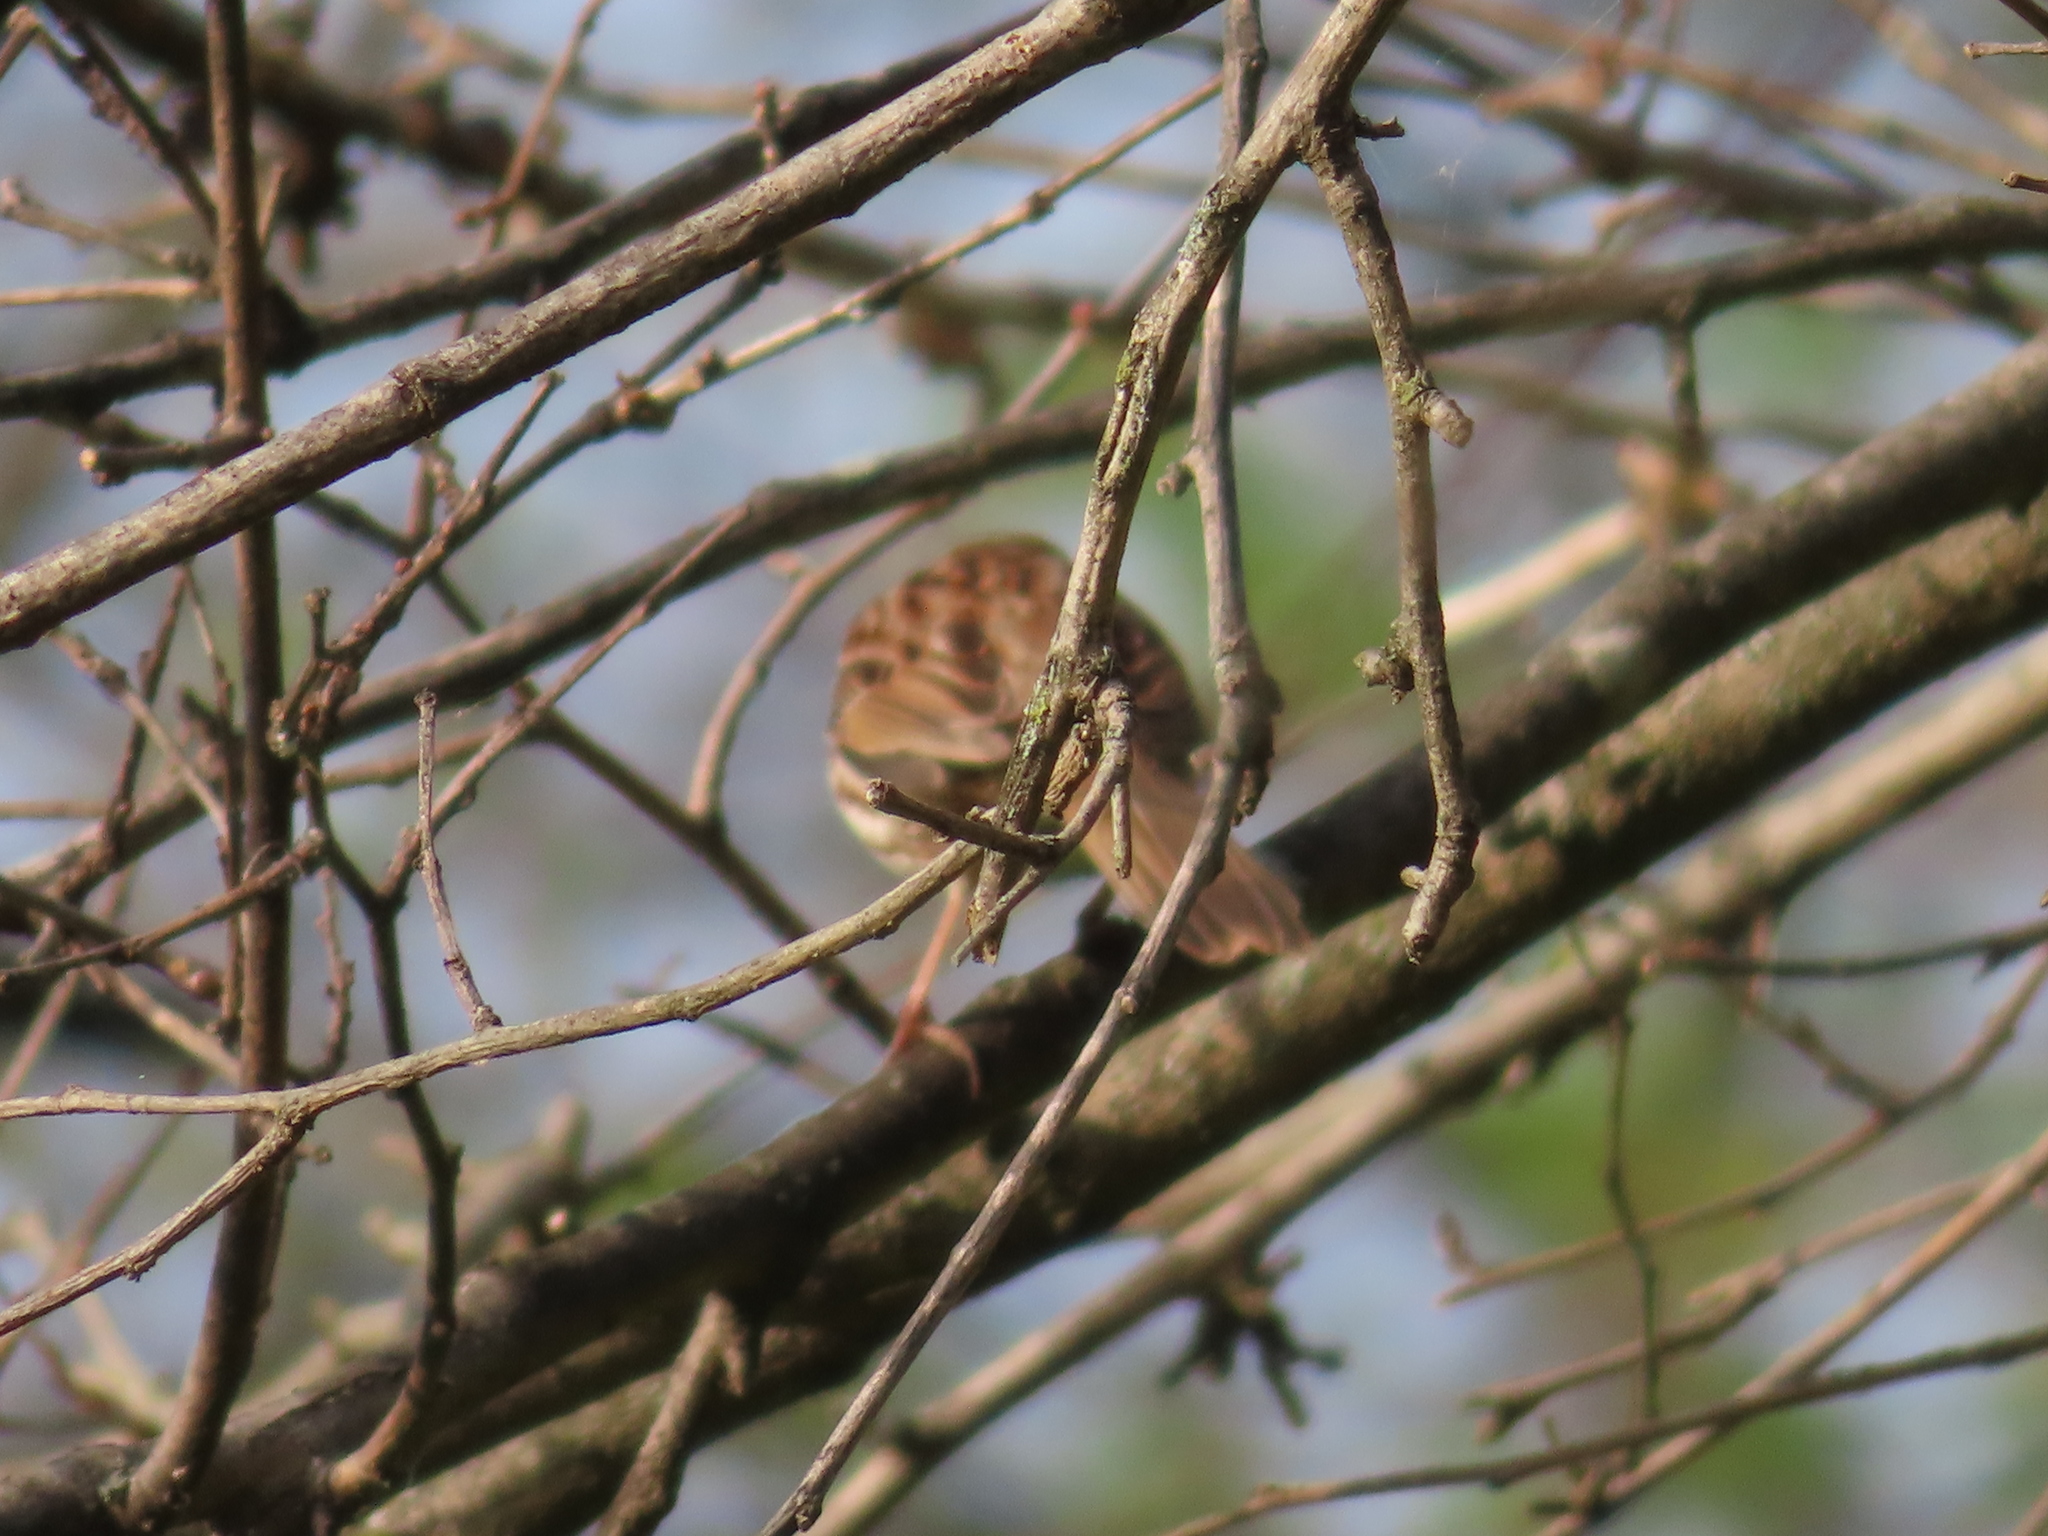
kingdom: Animalia
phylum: Chordata
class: Aves
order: Passeriformes
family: Passerellidae
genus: Melospiza
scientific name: Melospiza melodia
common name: Song sparrow
